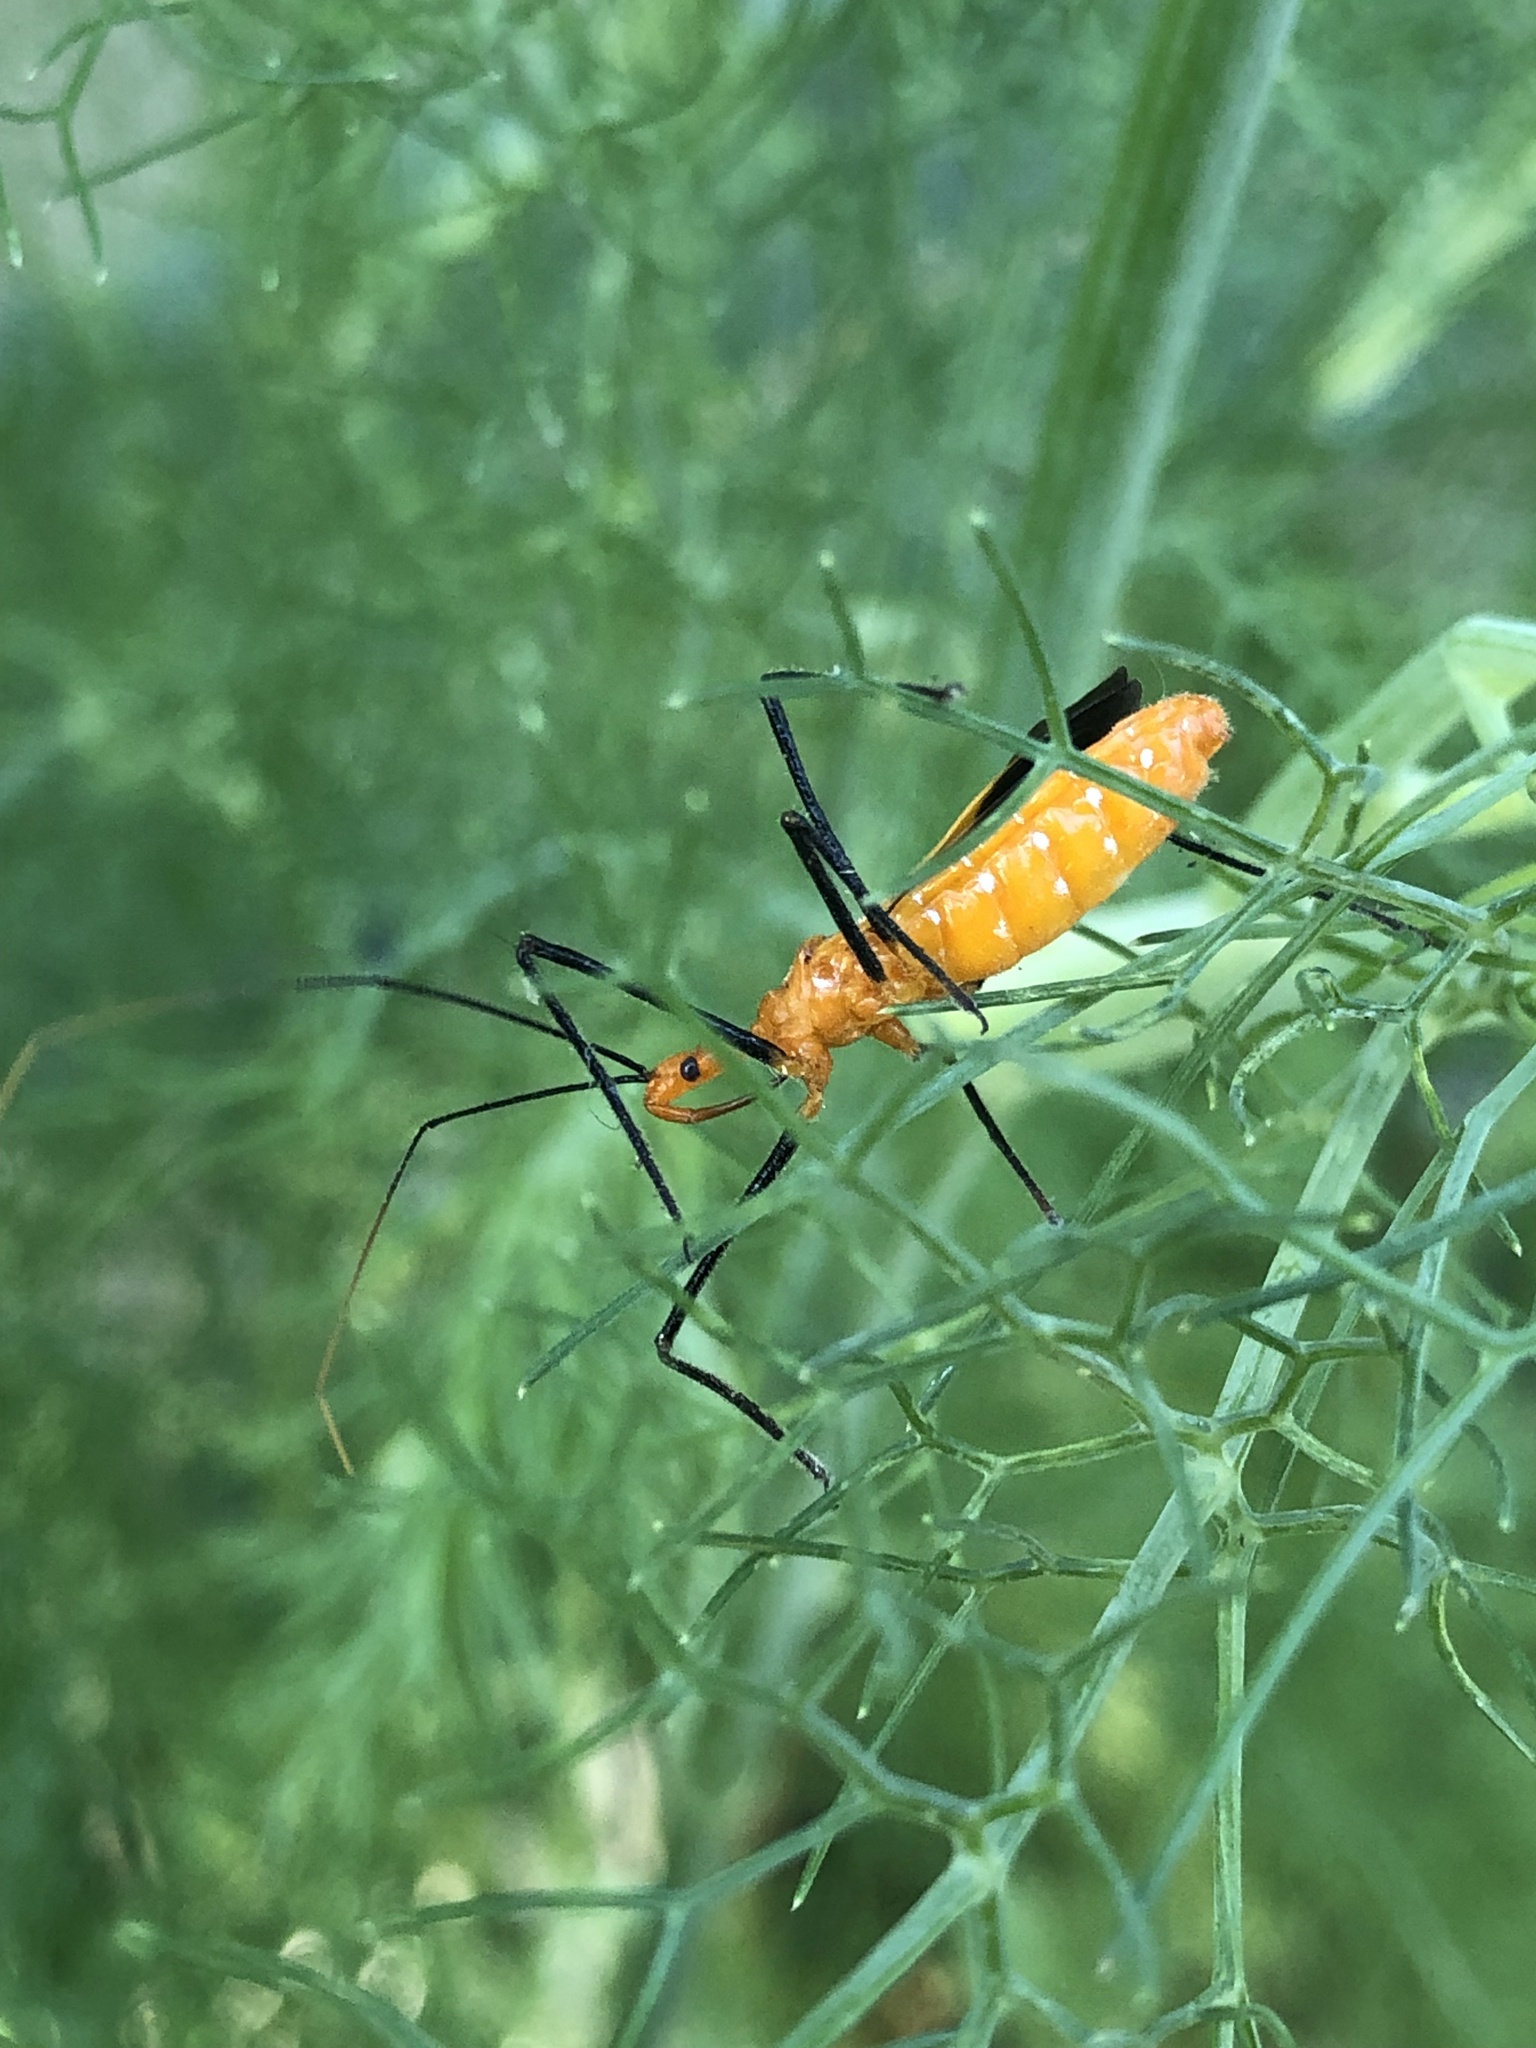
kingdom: Animalia
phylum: Arthropoda
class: Insecta
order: Hemiptera
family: Reduviidae
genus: Zelus
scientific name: Zelus longipes
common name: Milkweed assassin bug
